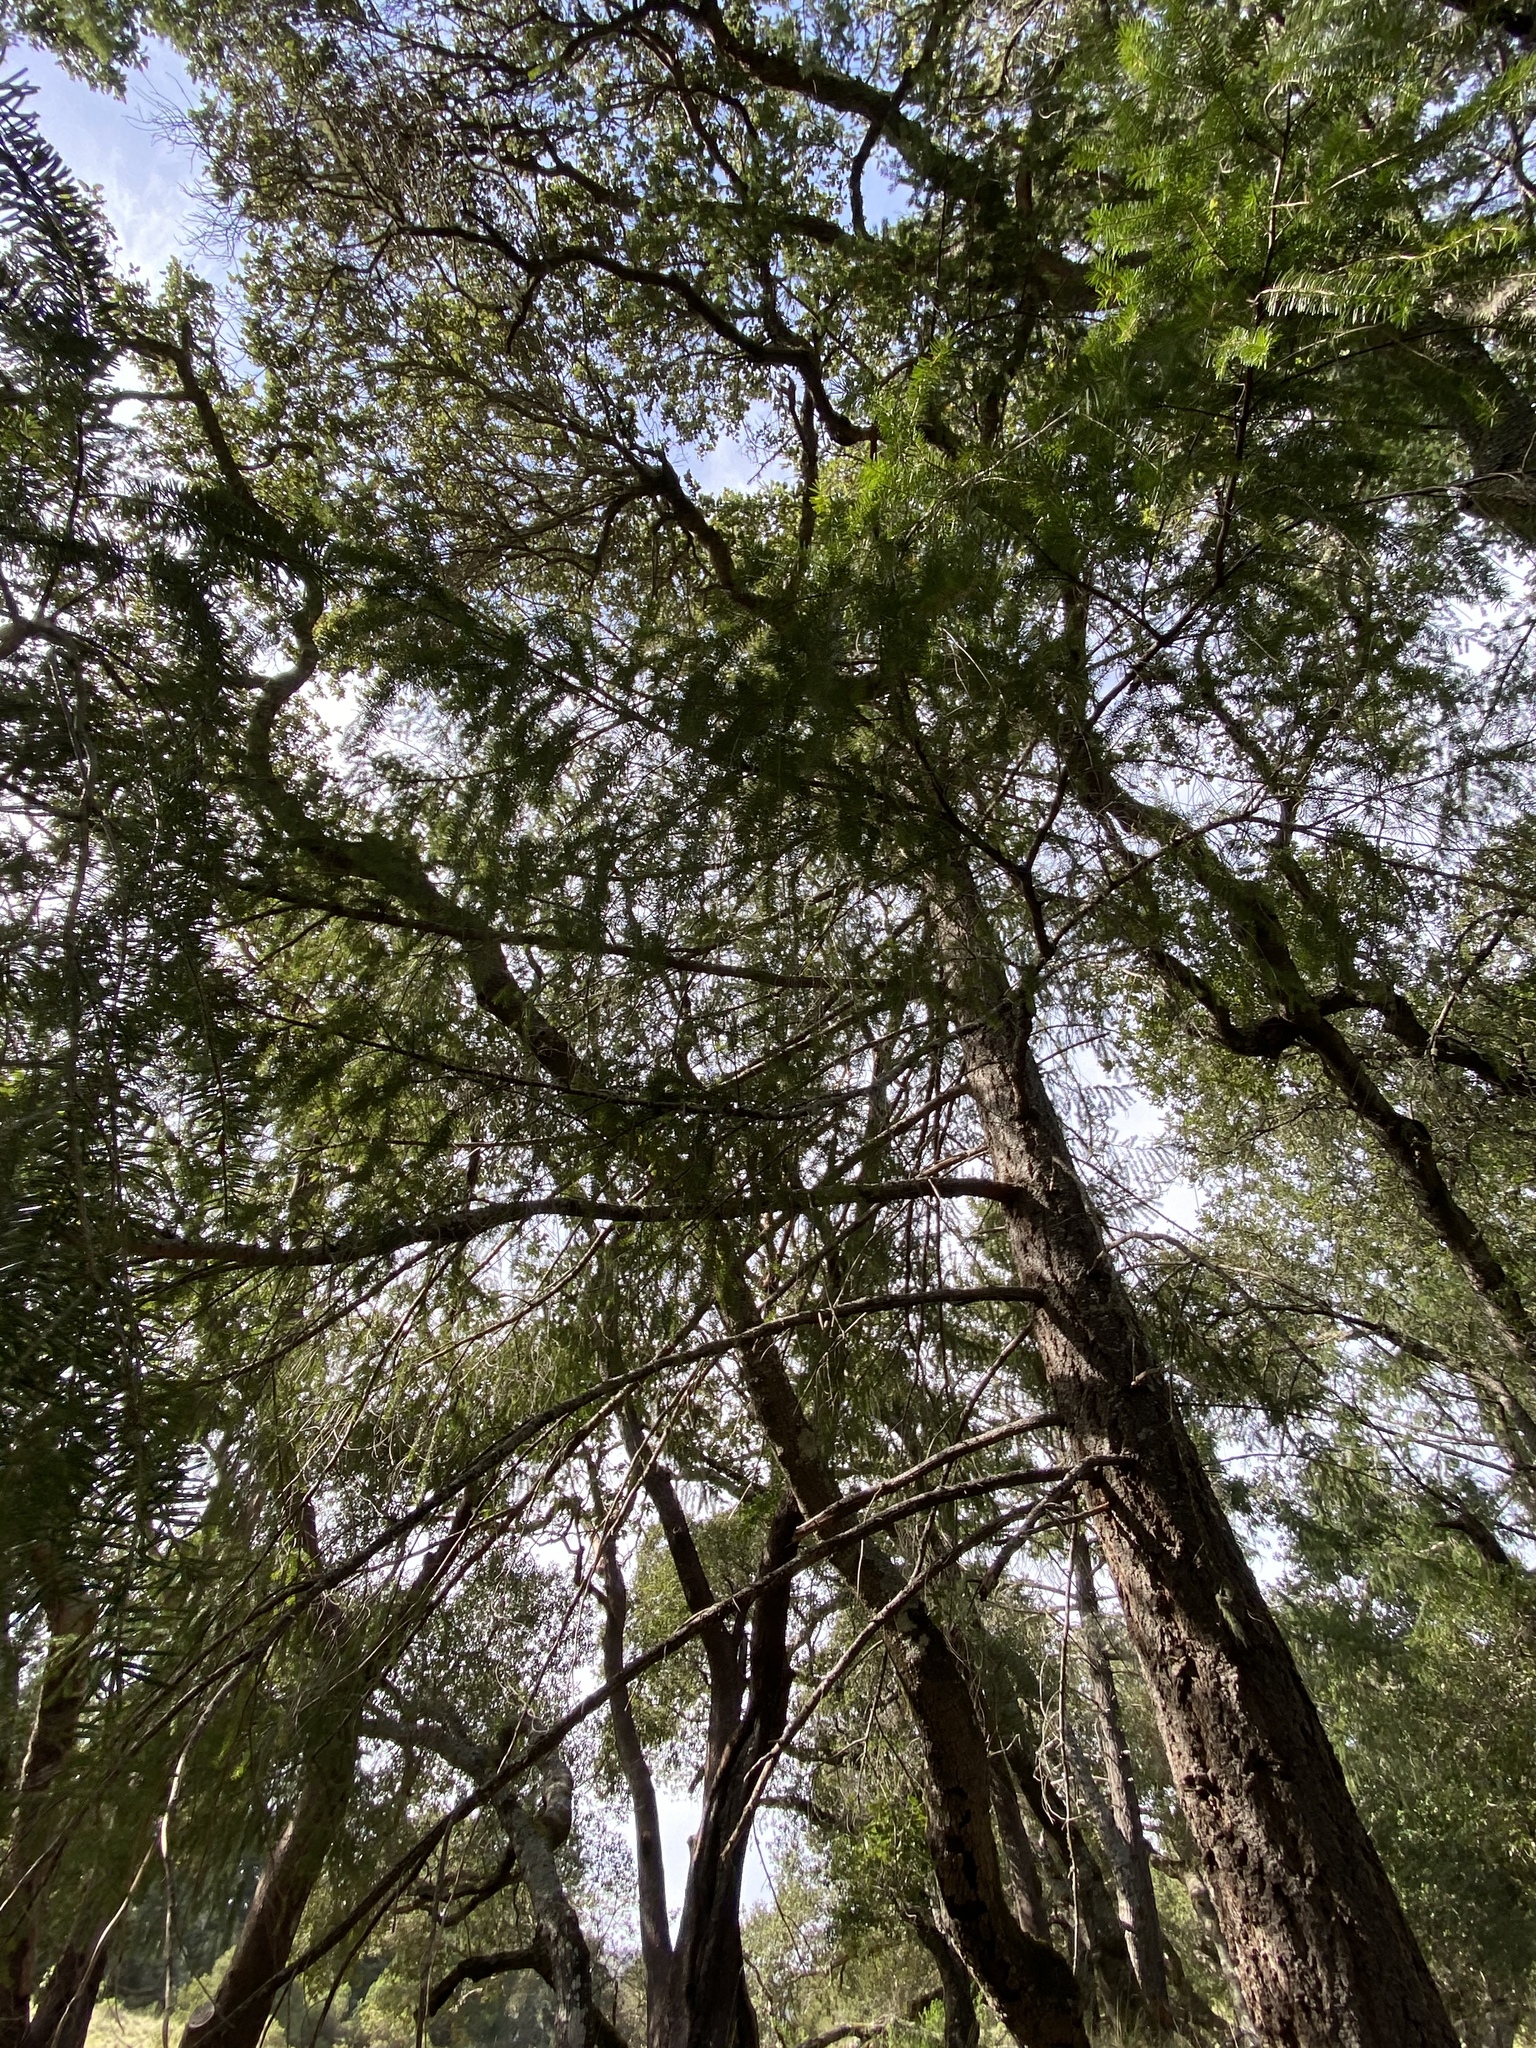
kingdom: Plantae
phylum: Tracheophyta
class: Pinopsida
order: Pinales
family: Pinaceae
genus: Pseudotsuga
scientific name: Pseudotsuga menziesii
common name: Douglas fir
